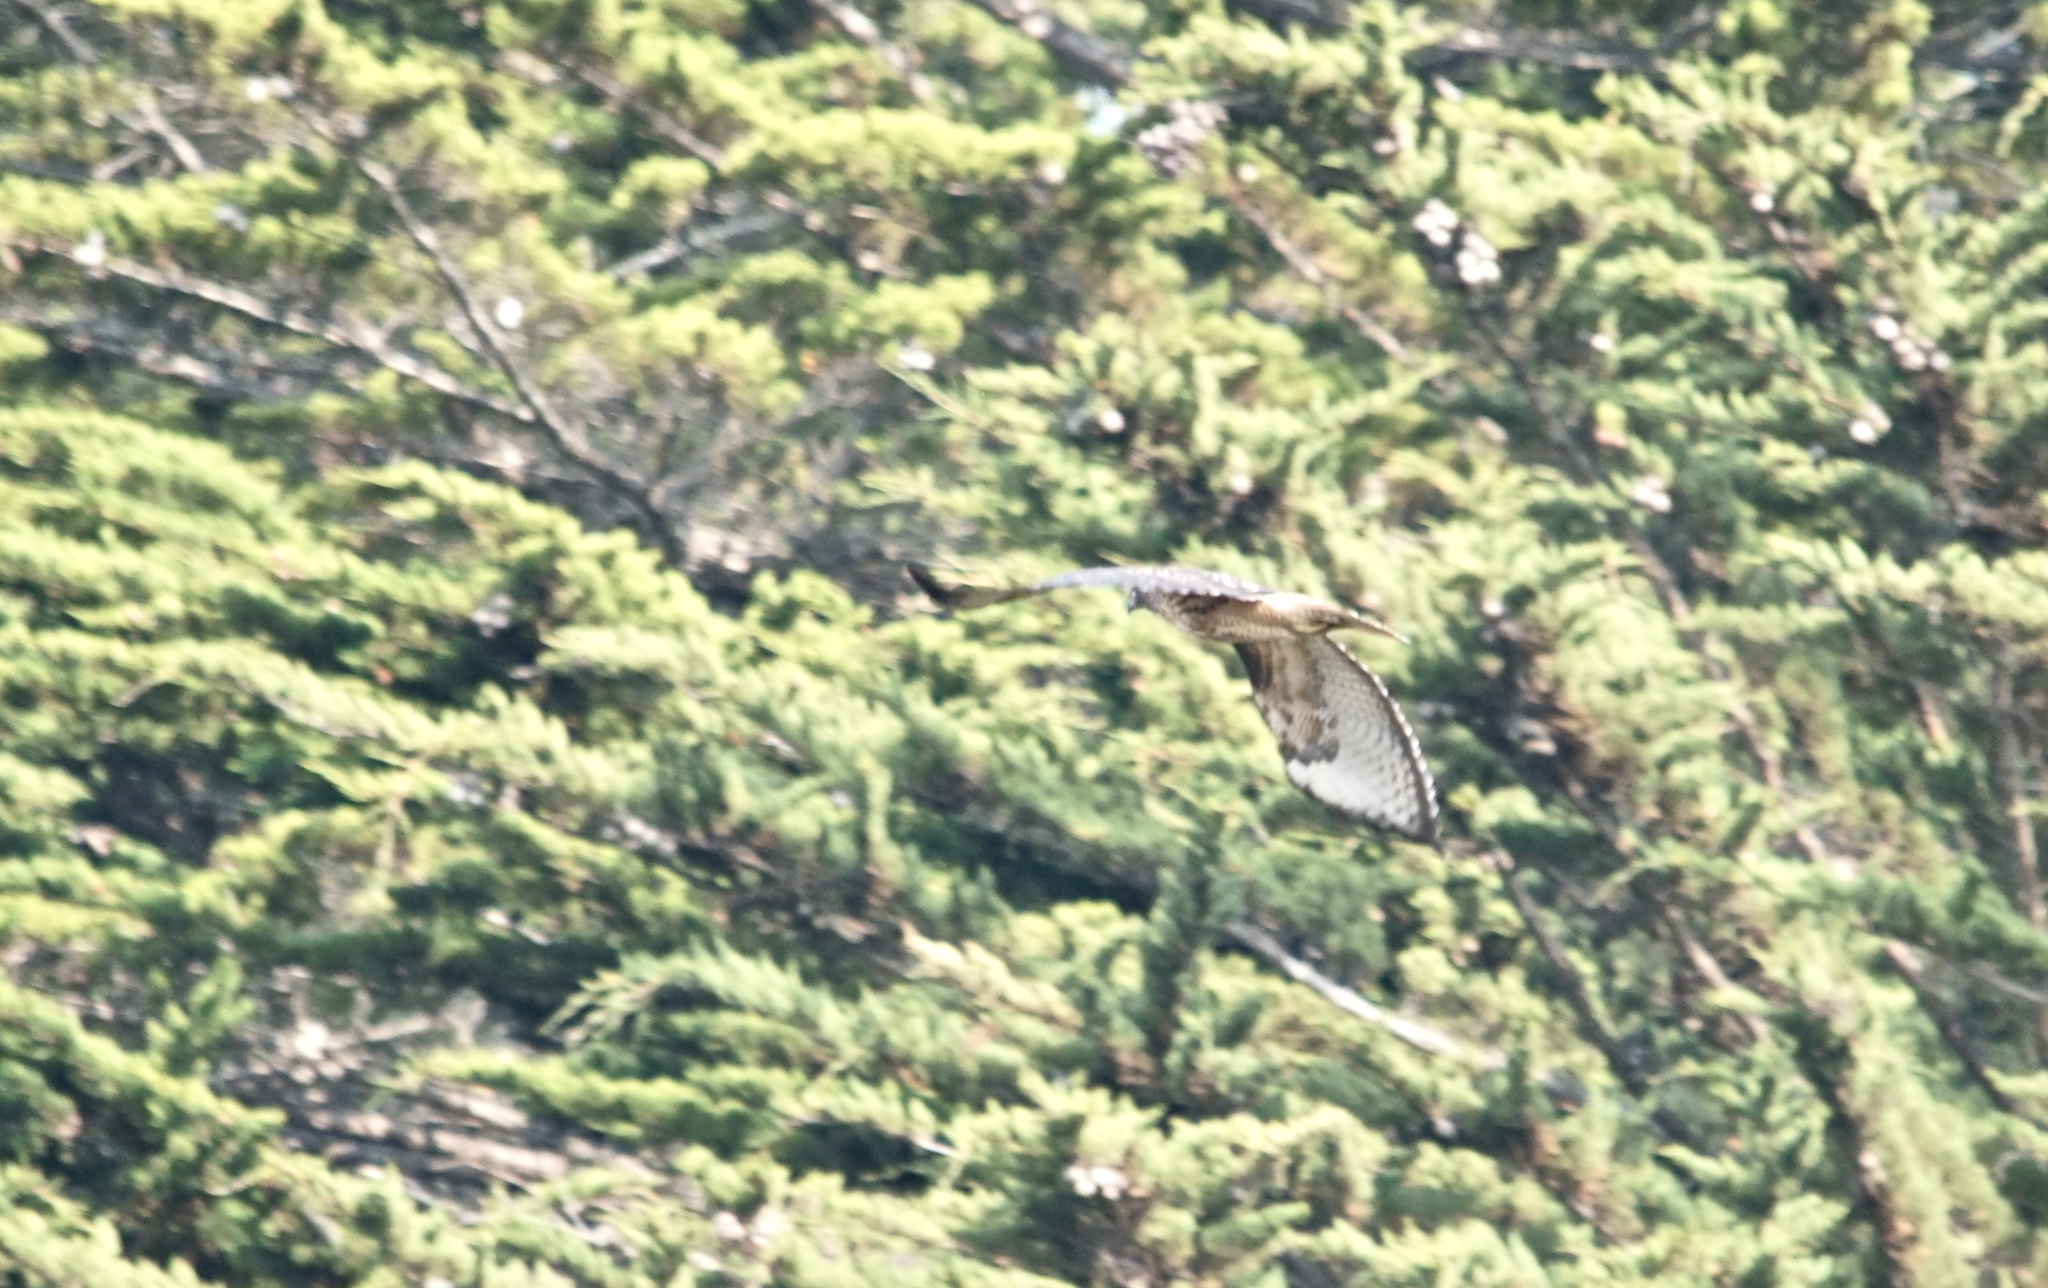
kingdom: Animalia
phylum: Chordata
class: Aves
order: Accipitriformes
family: Accipitridae
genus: Buteo
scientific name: Buteo jamaicensis
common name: Red-tailed hawk
